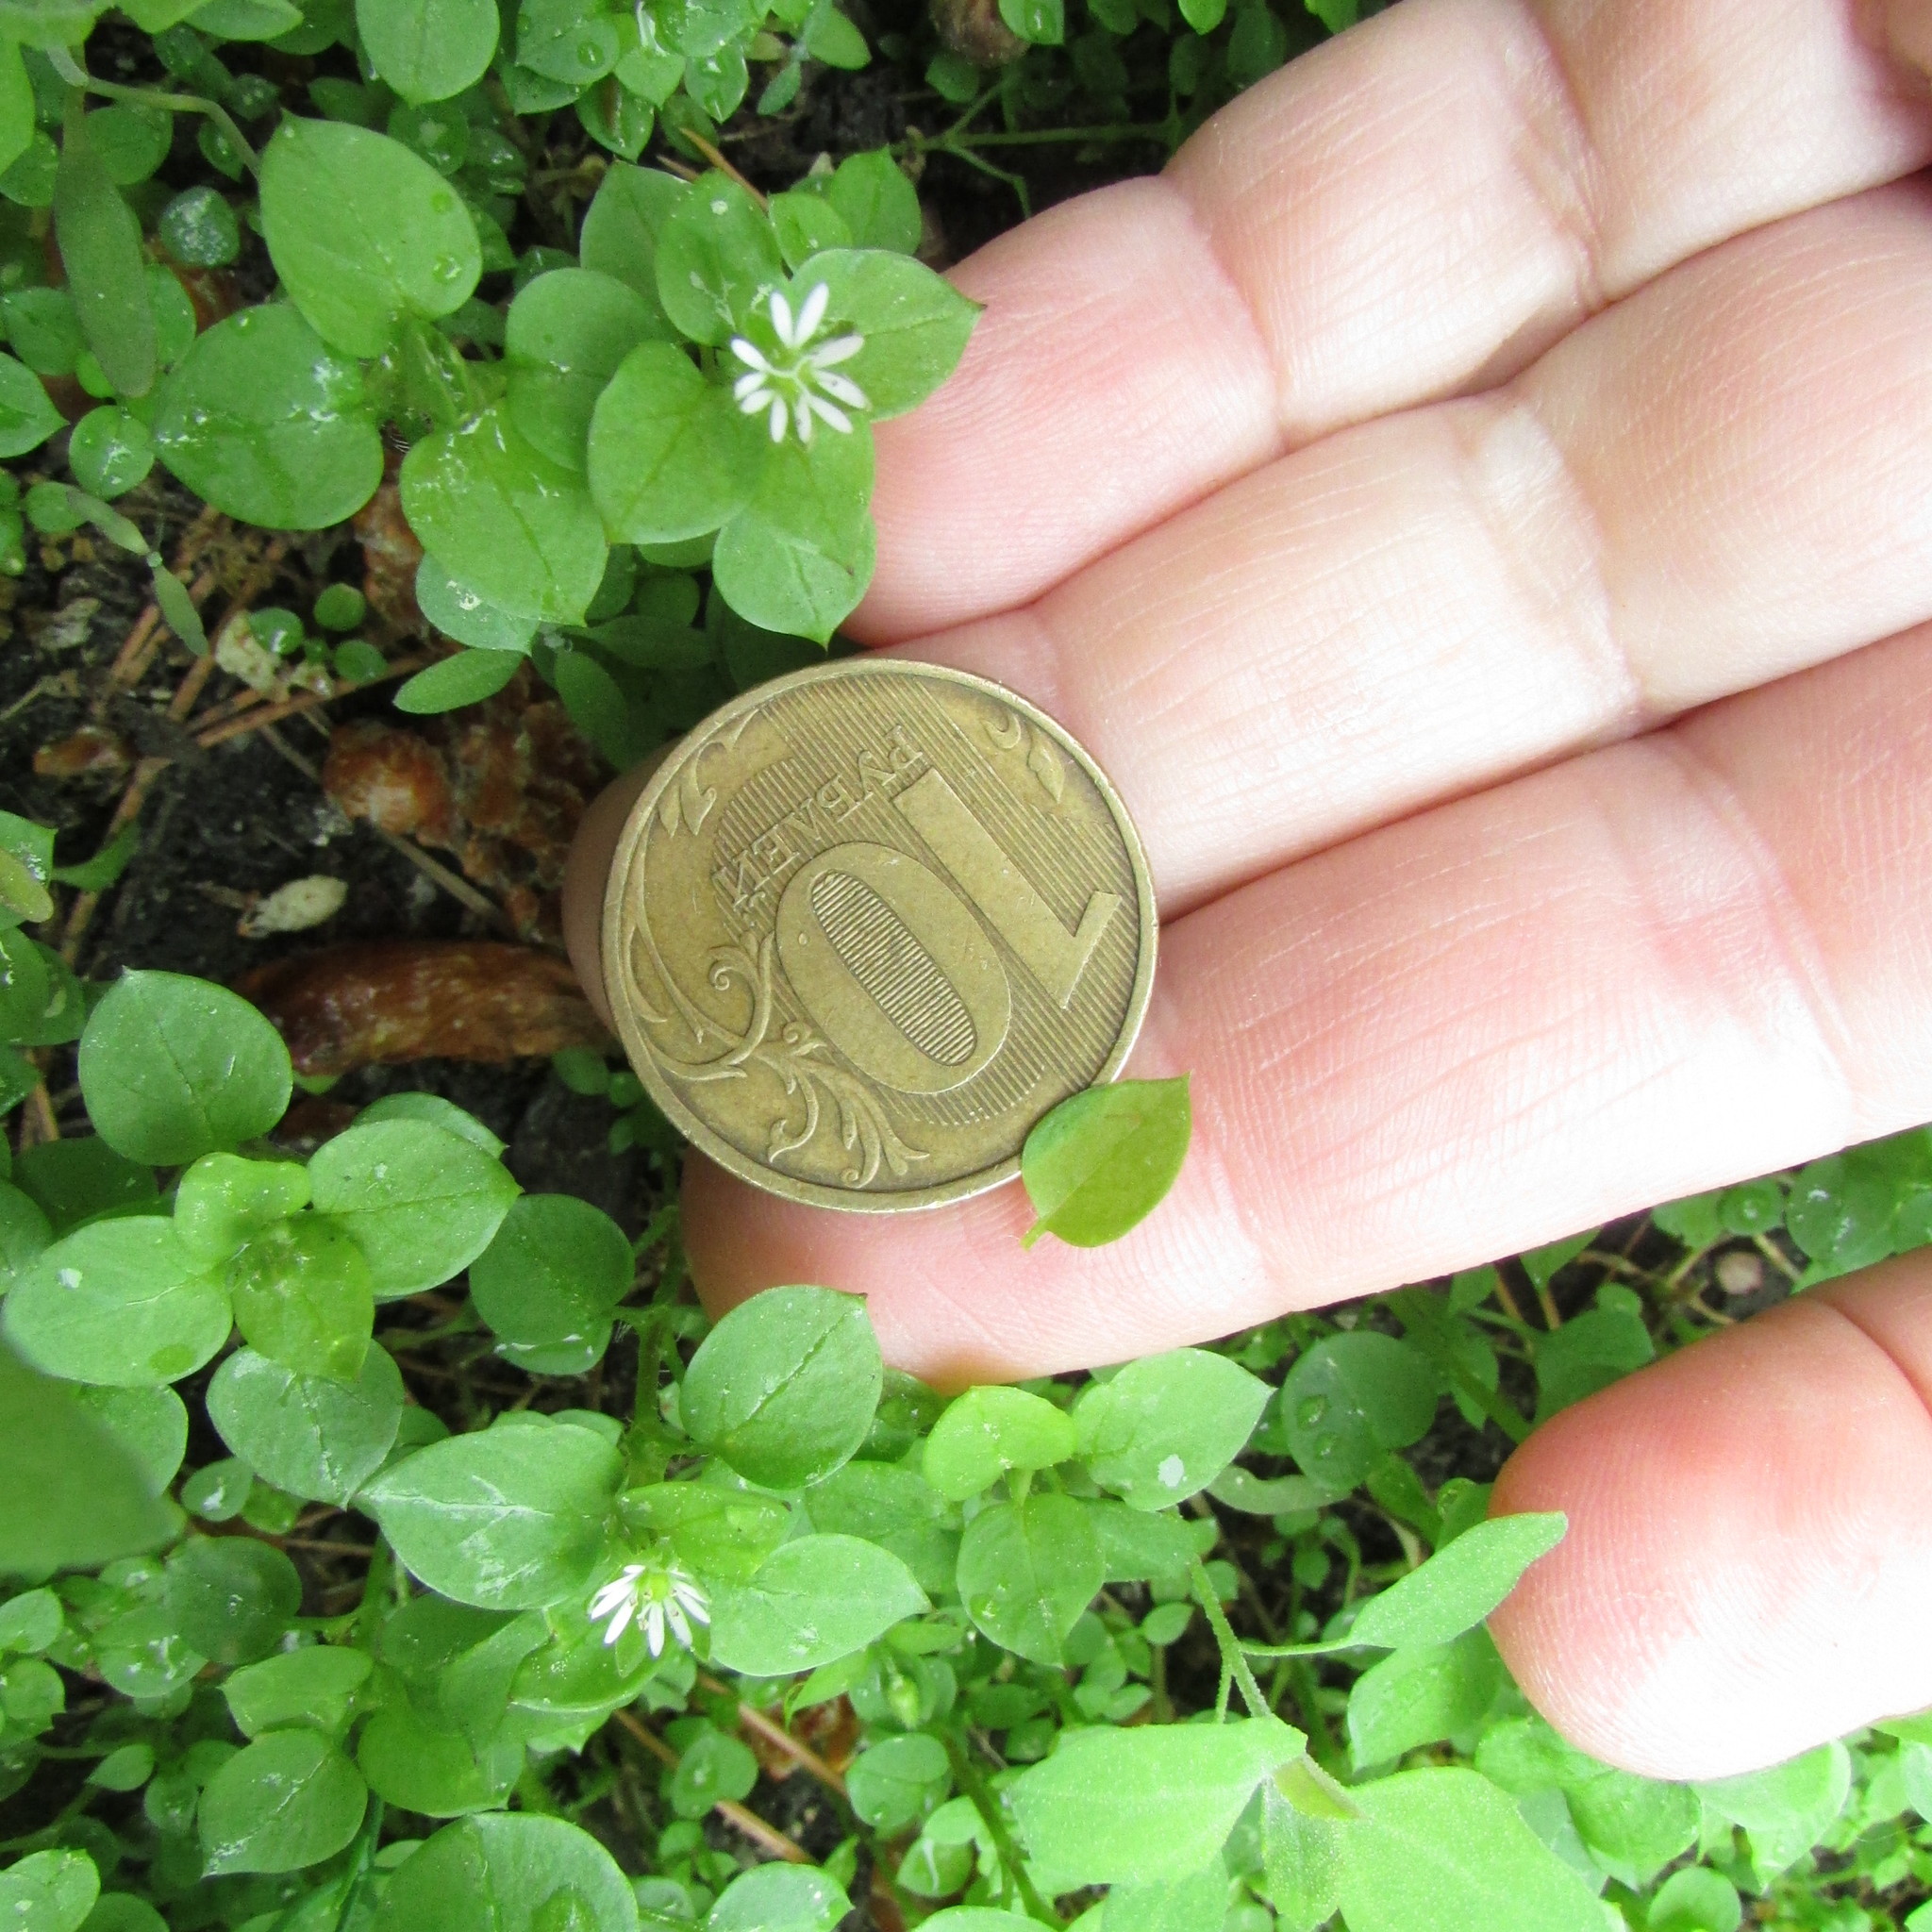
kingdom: Plantae
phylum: Tracheophyta
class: Magnoliopsida
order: Caryophyllales
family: Caryophyllaceae
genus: Stellaria
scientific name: Stellaria media
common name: Common chickweed
